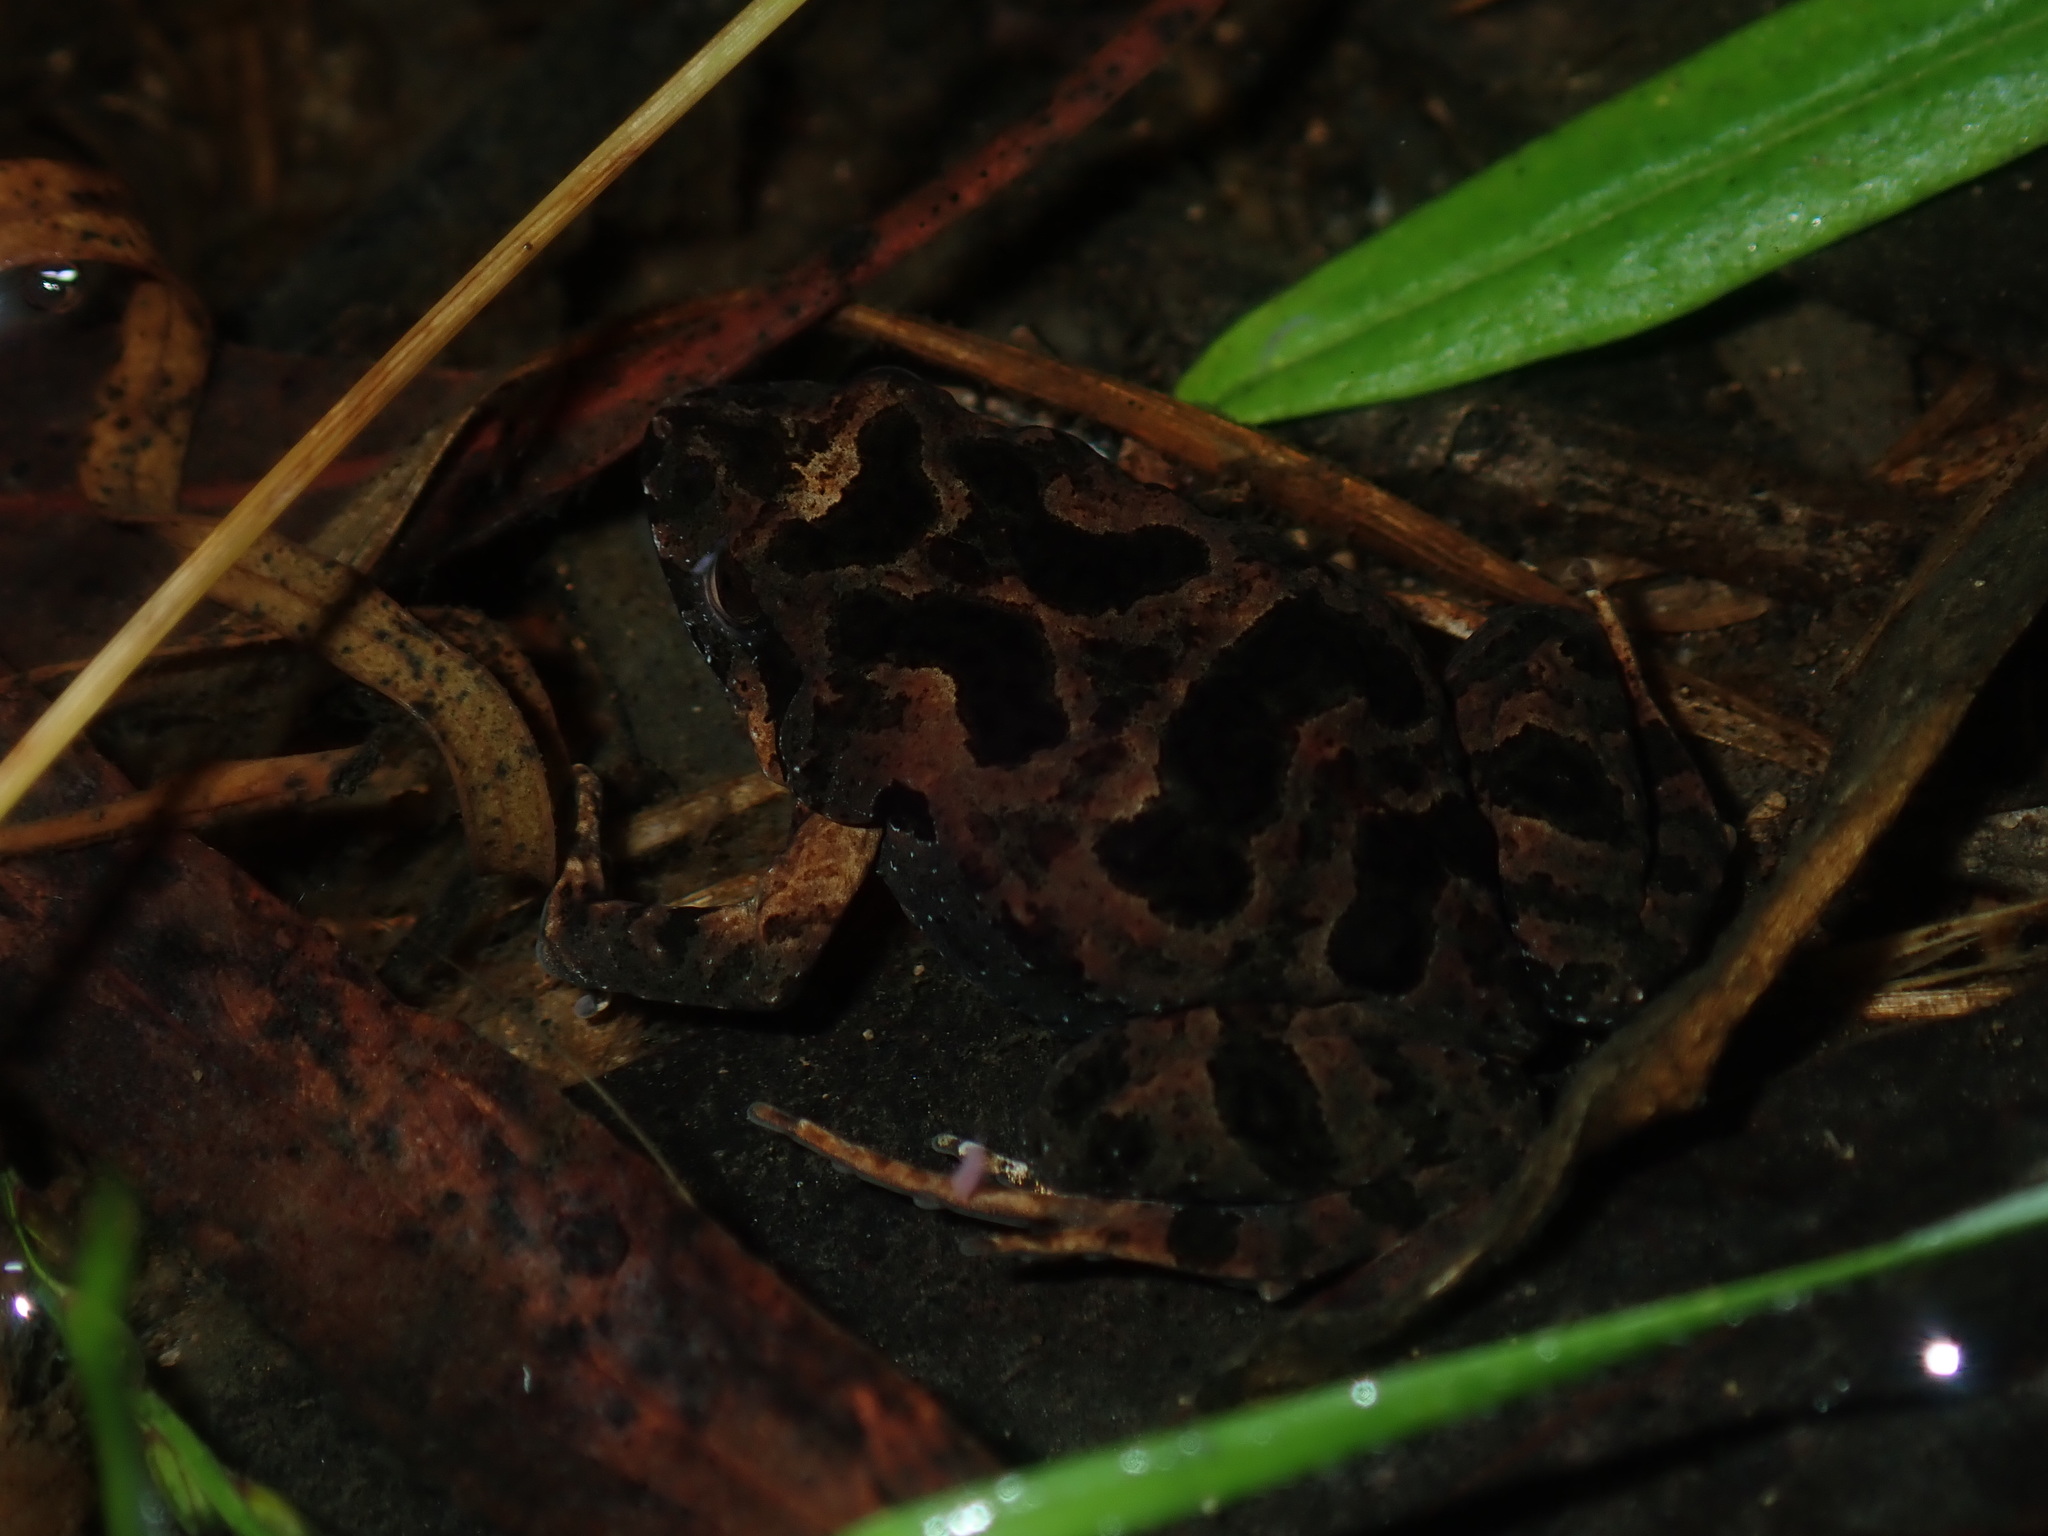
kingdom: Animalia
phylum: Chordata
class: Amphibia
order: Anura
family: Myobatrachidae
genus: Crinia
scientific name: Crinia signifera
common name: Brown froglet
